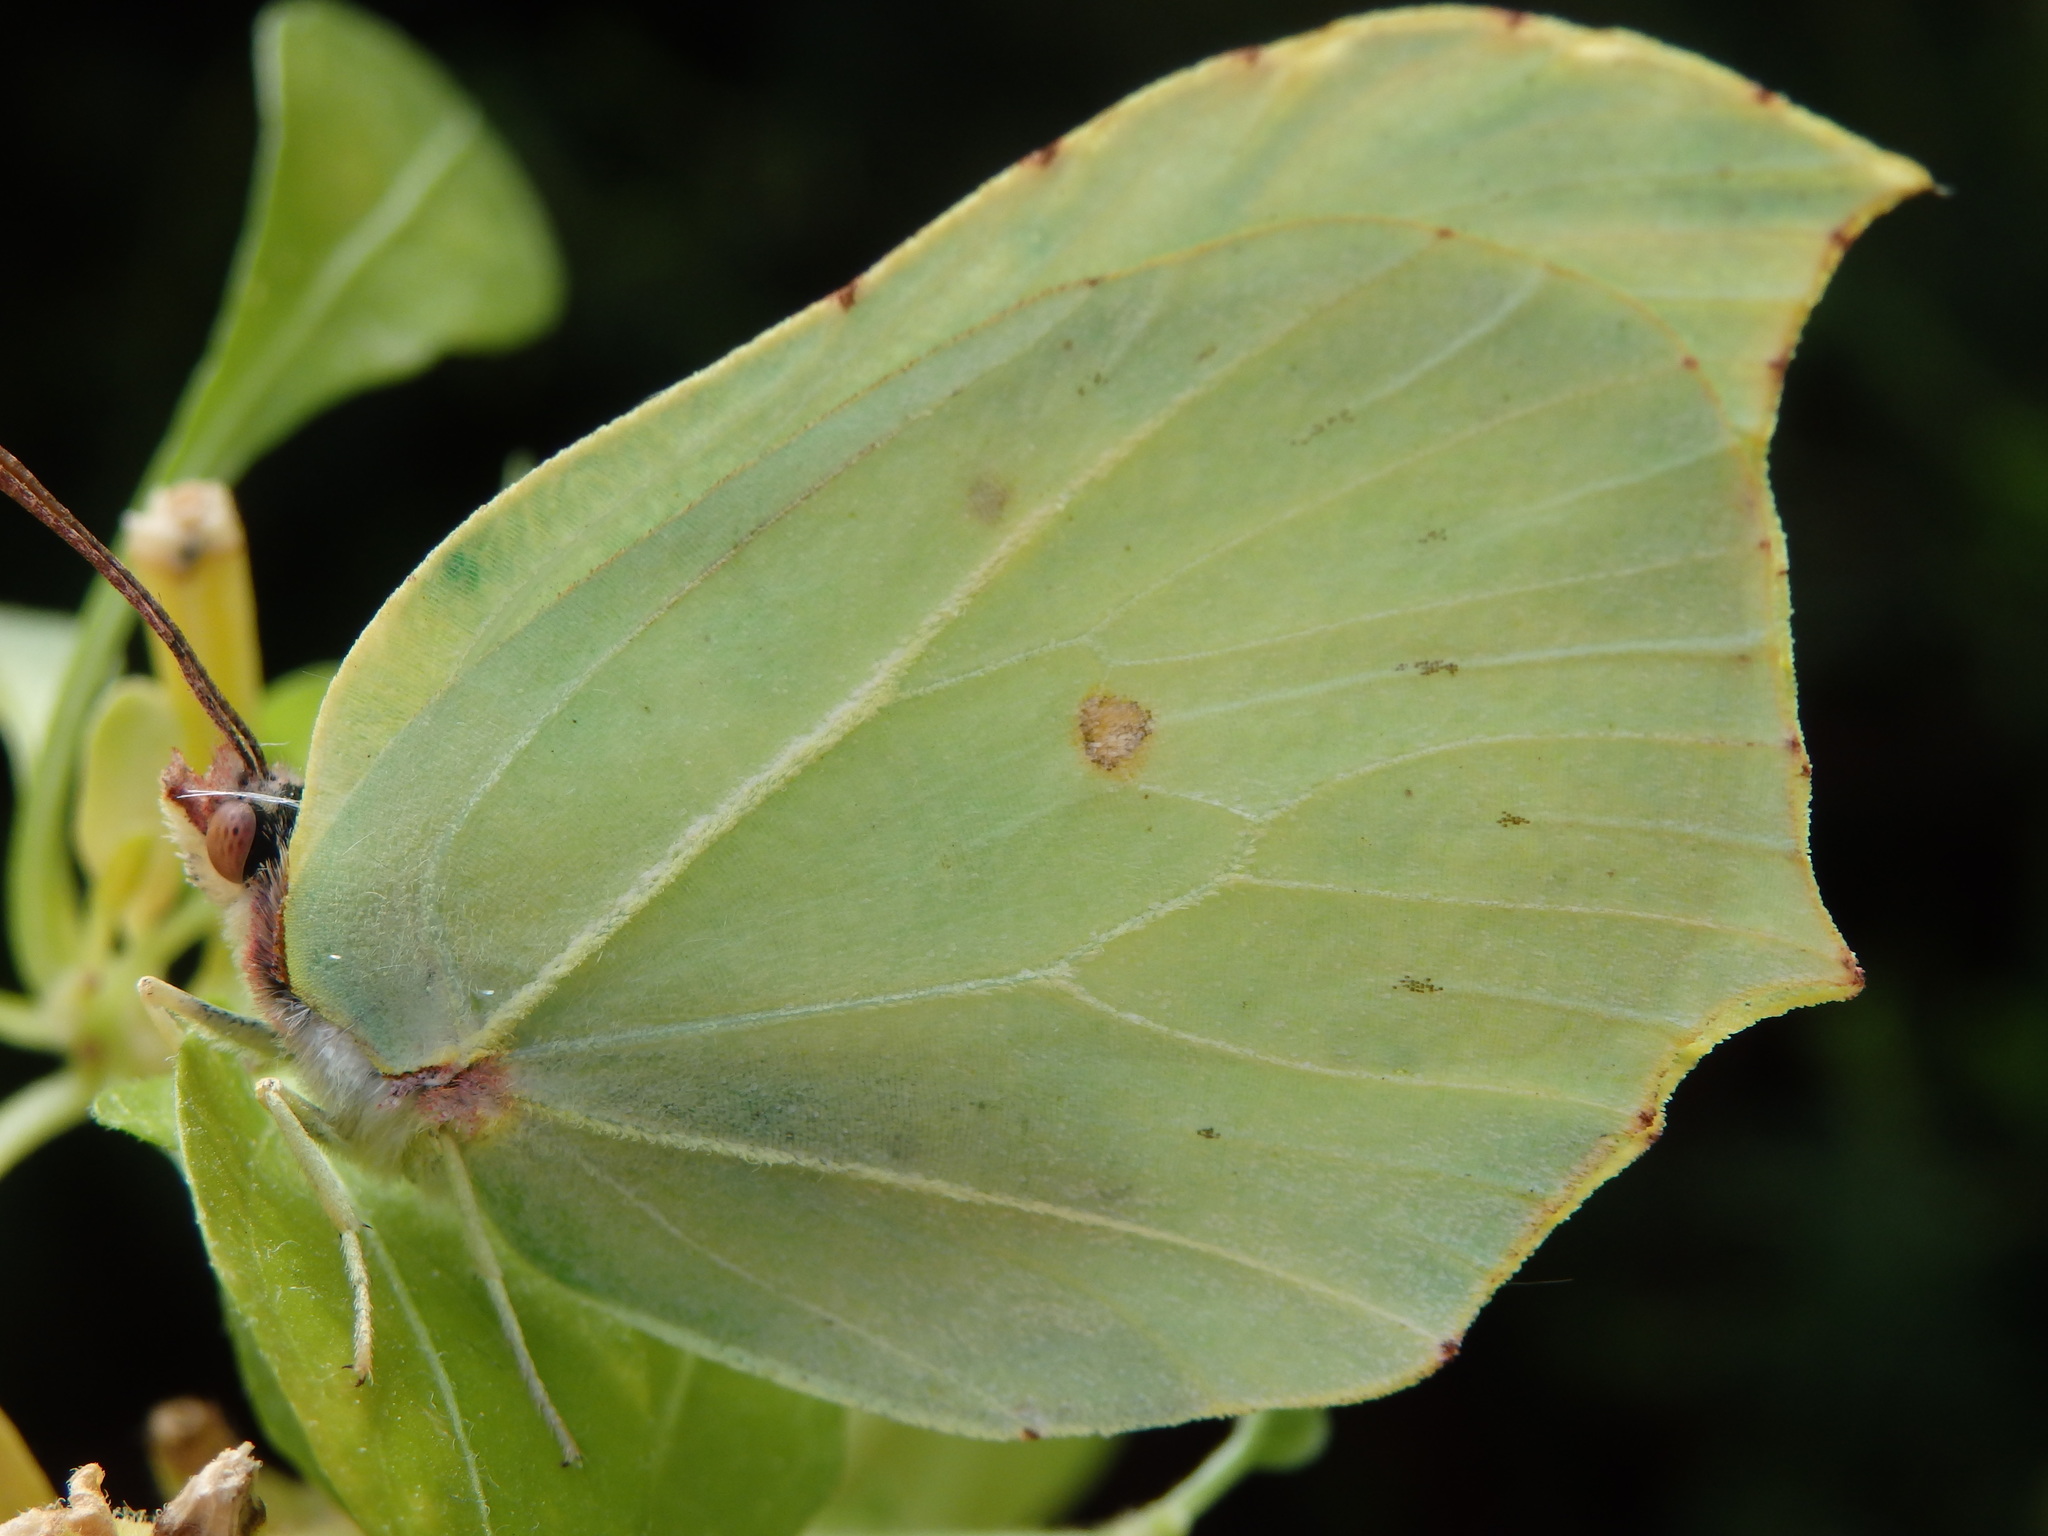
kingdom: Animalia
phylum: Arthropoda
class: Insecta
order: Lepidoptera
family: Pieridae
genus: Gonepteryx
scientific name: Gonepteryx rhamni
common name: Brimstone
